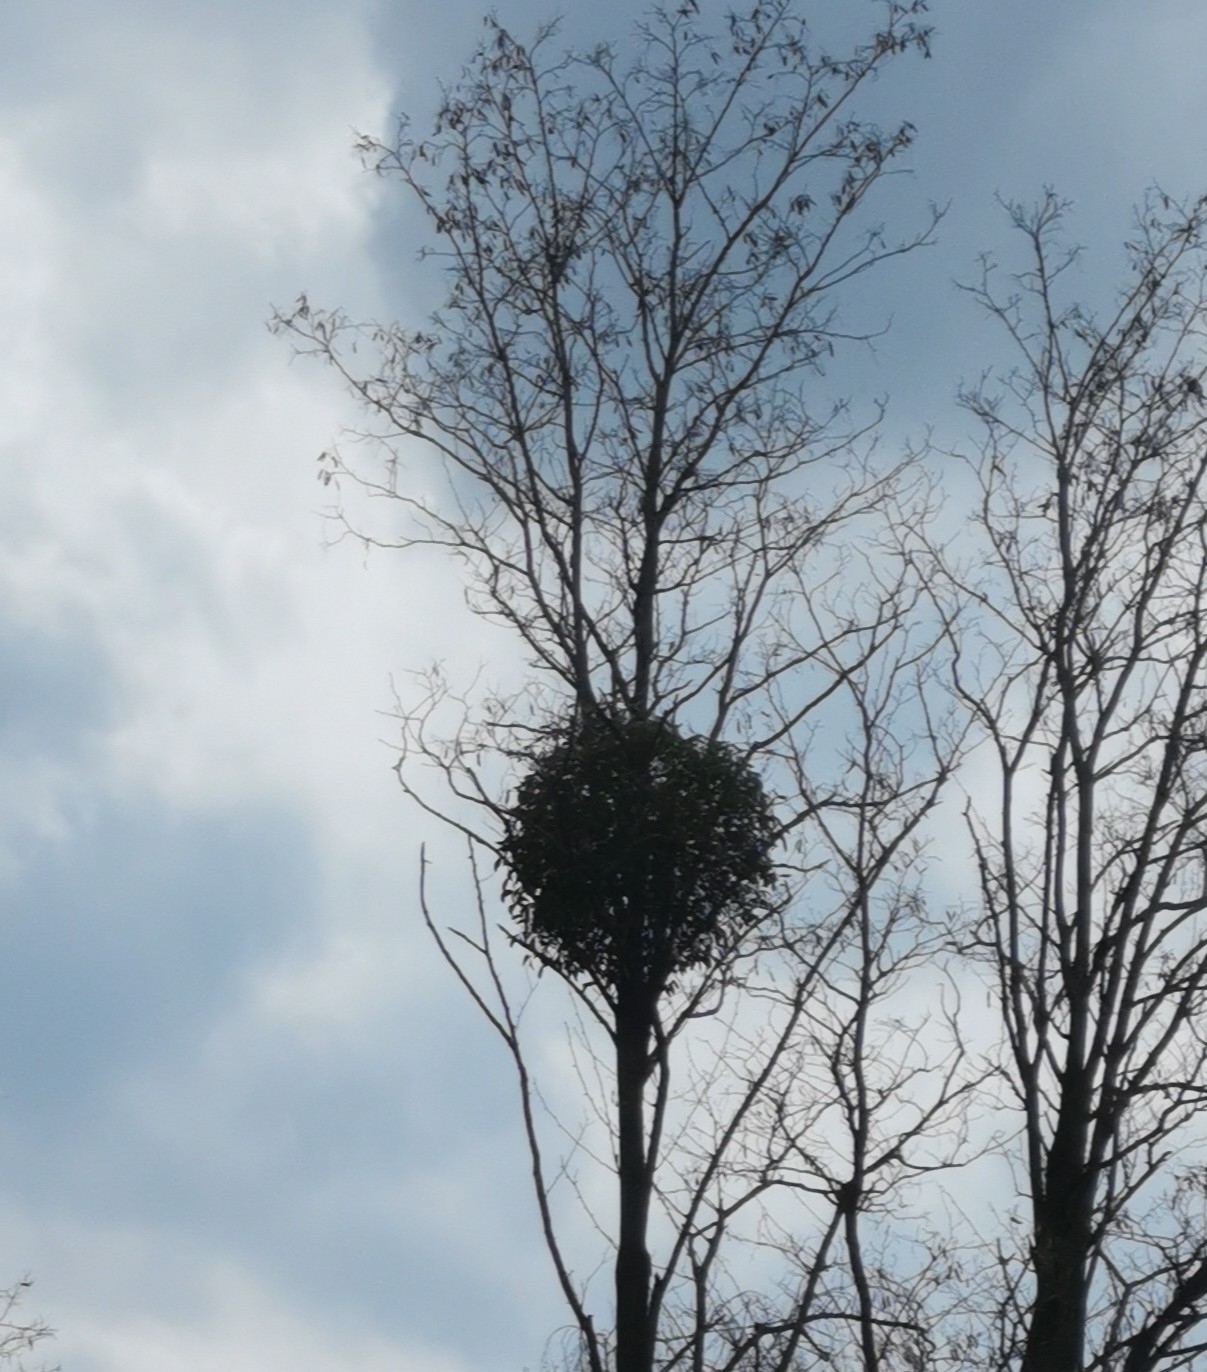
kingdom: Plantae
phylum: Tracheophyta
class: Magnoliopsida
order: Santalales
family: Viscaceae
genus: Viscum
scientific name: Viscum album
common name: Mistletoe
